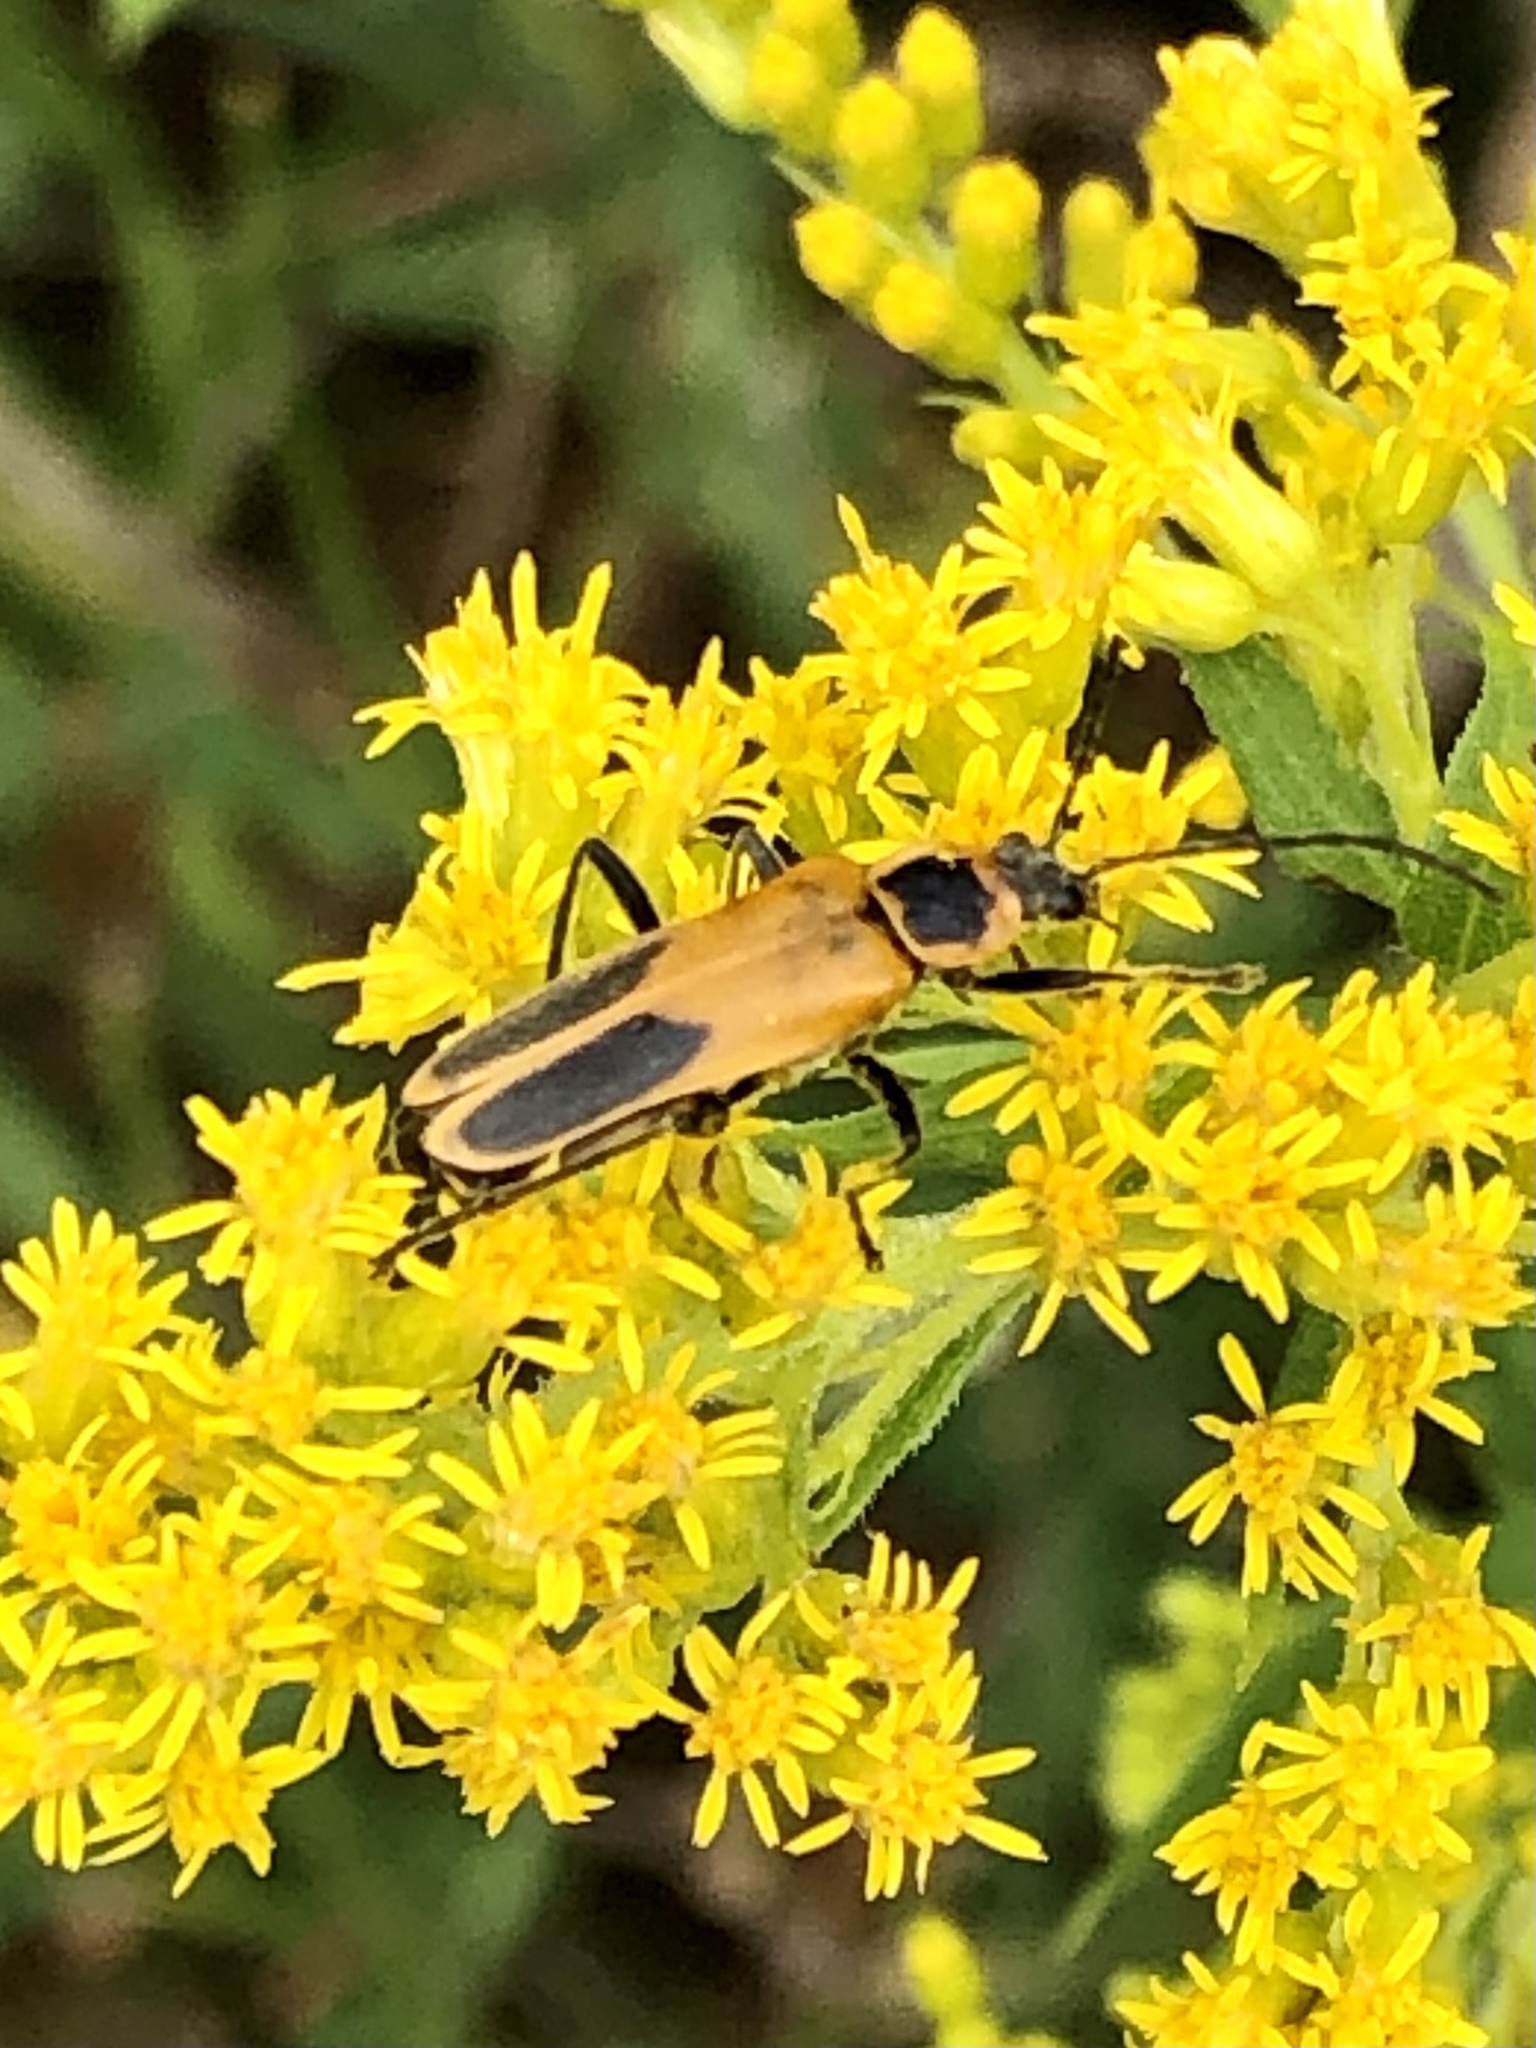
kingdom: Animalia
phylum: Arthropoda
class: Insecta
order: Coleoptera
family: Cantharidae
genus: Chauliognathus
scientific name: Chauliognathus pensylvanicus
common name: Goldenrod soldier beetle
